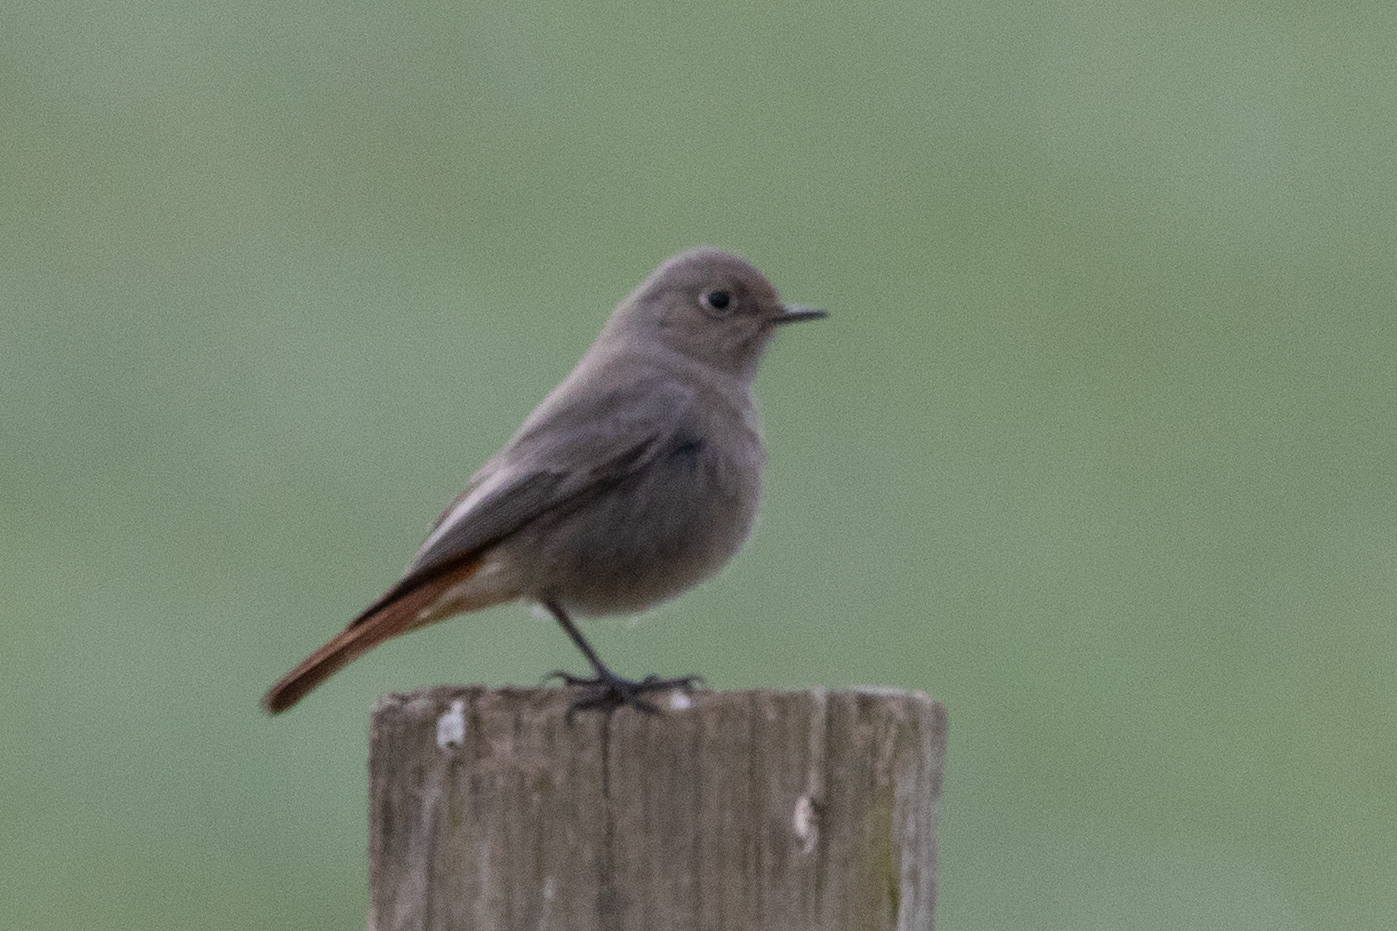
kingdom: Animalia
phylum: Chordata
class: Aves
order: Passeriformes
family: Muscicapidae
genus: Phoenicurus
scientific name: Phoenicurus ochruros
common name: Black redstart
